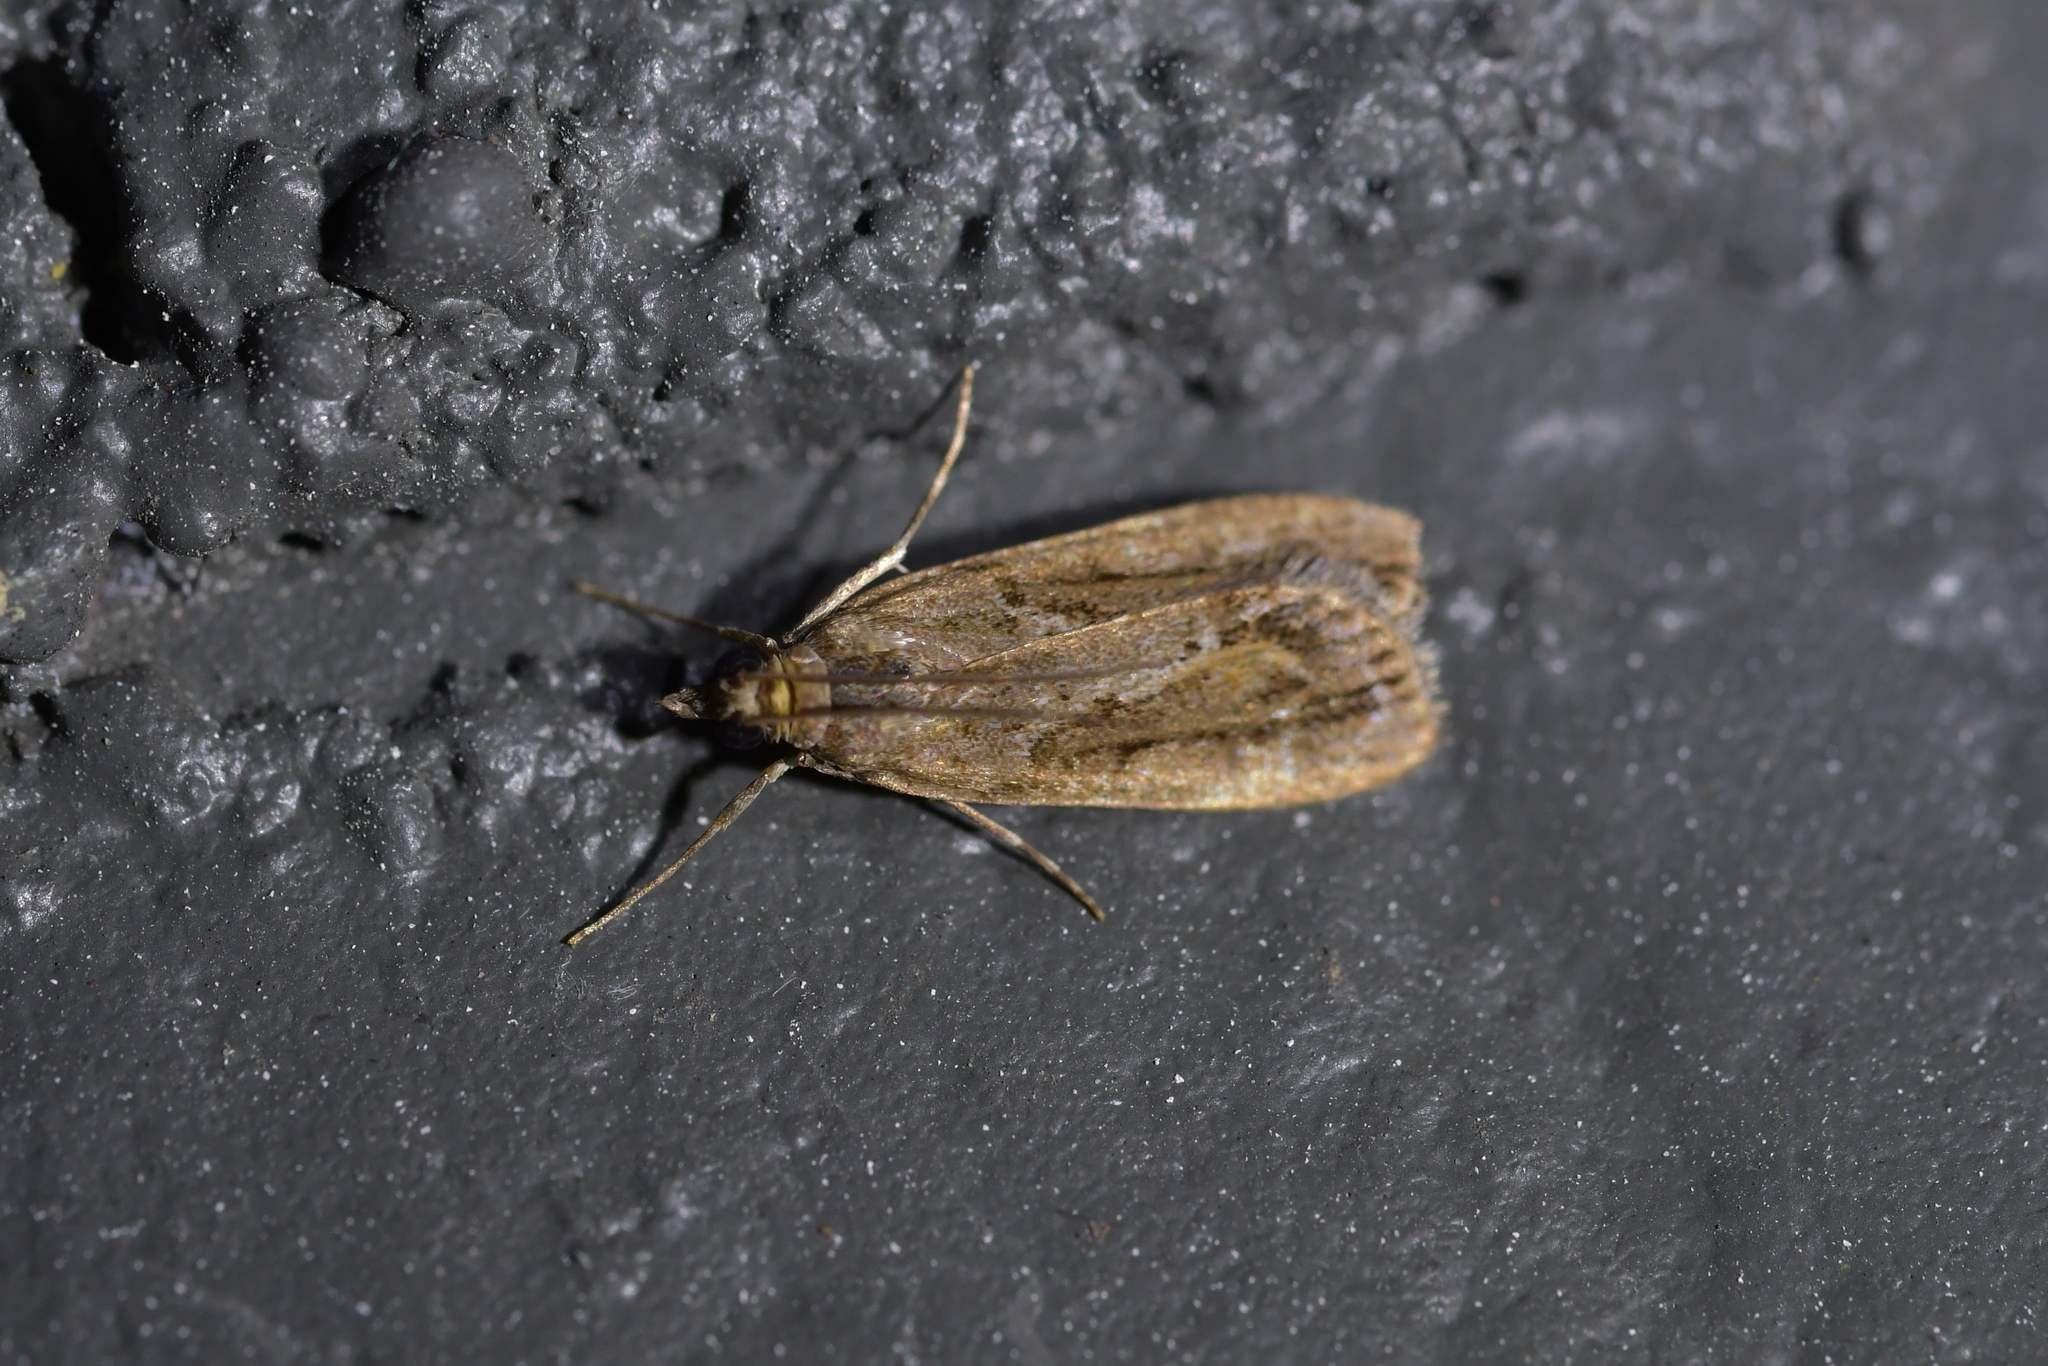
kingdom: Animalia
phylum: Arthropoda
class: Insecta
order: Lepidoptera
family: Crambidae
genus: Eudonia
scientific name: Eudonia submarginalis
